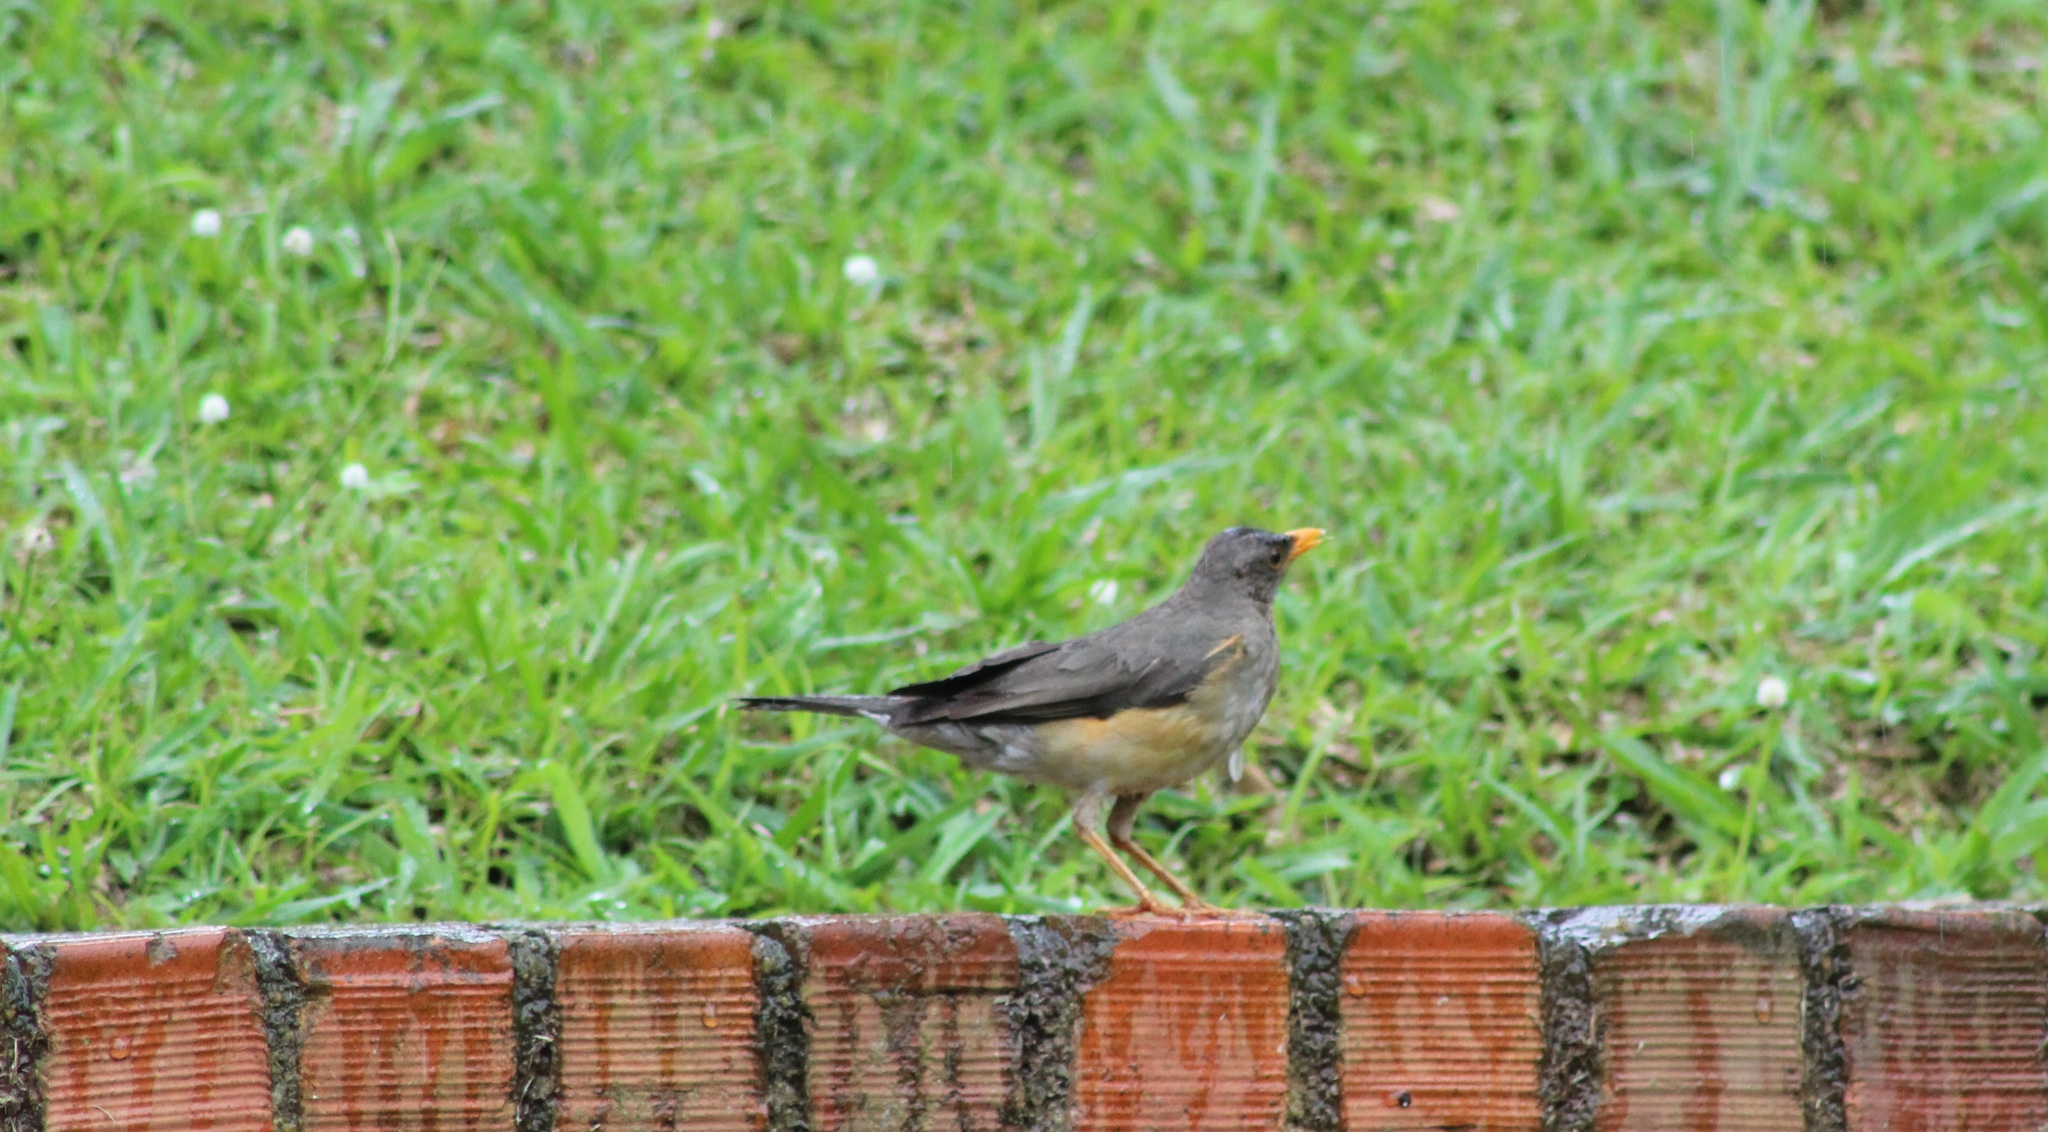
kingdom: Animalia
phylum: Chordata
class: Aves
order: Passeriformes
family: Turdidae
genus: Turdus
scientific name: Turdus pelios
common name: African thrush
